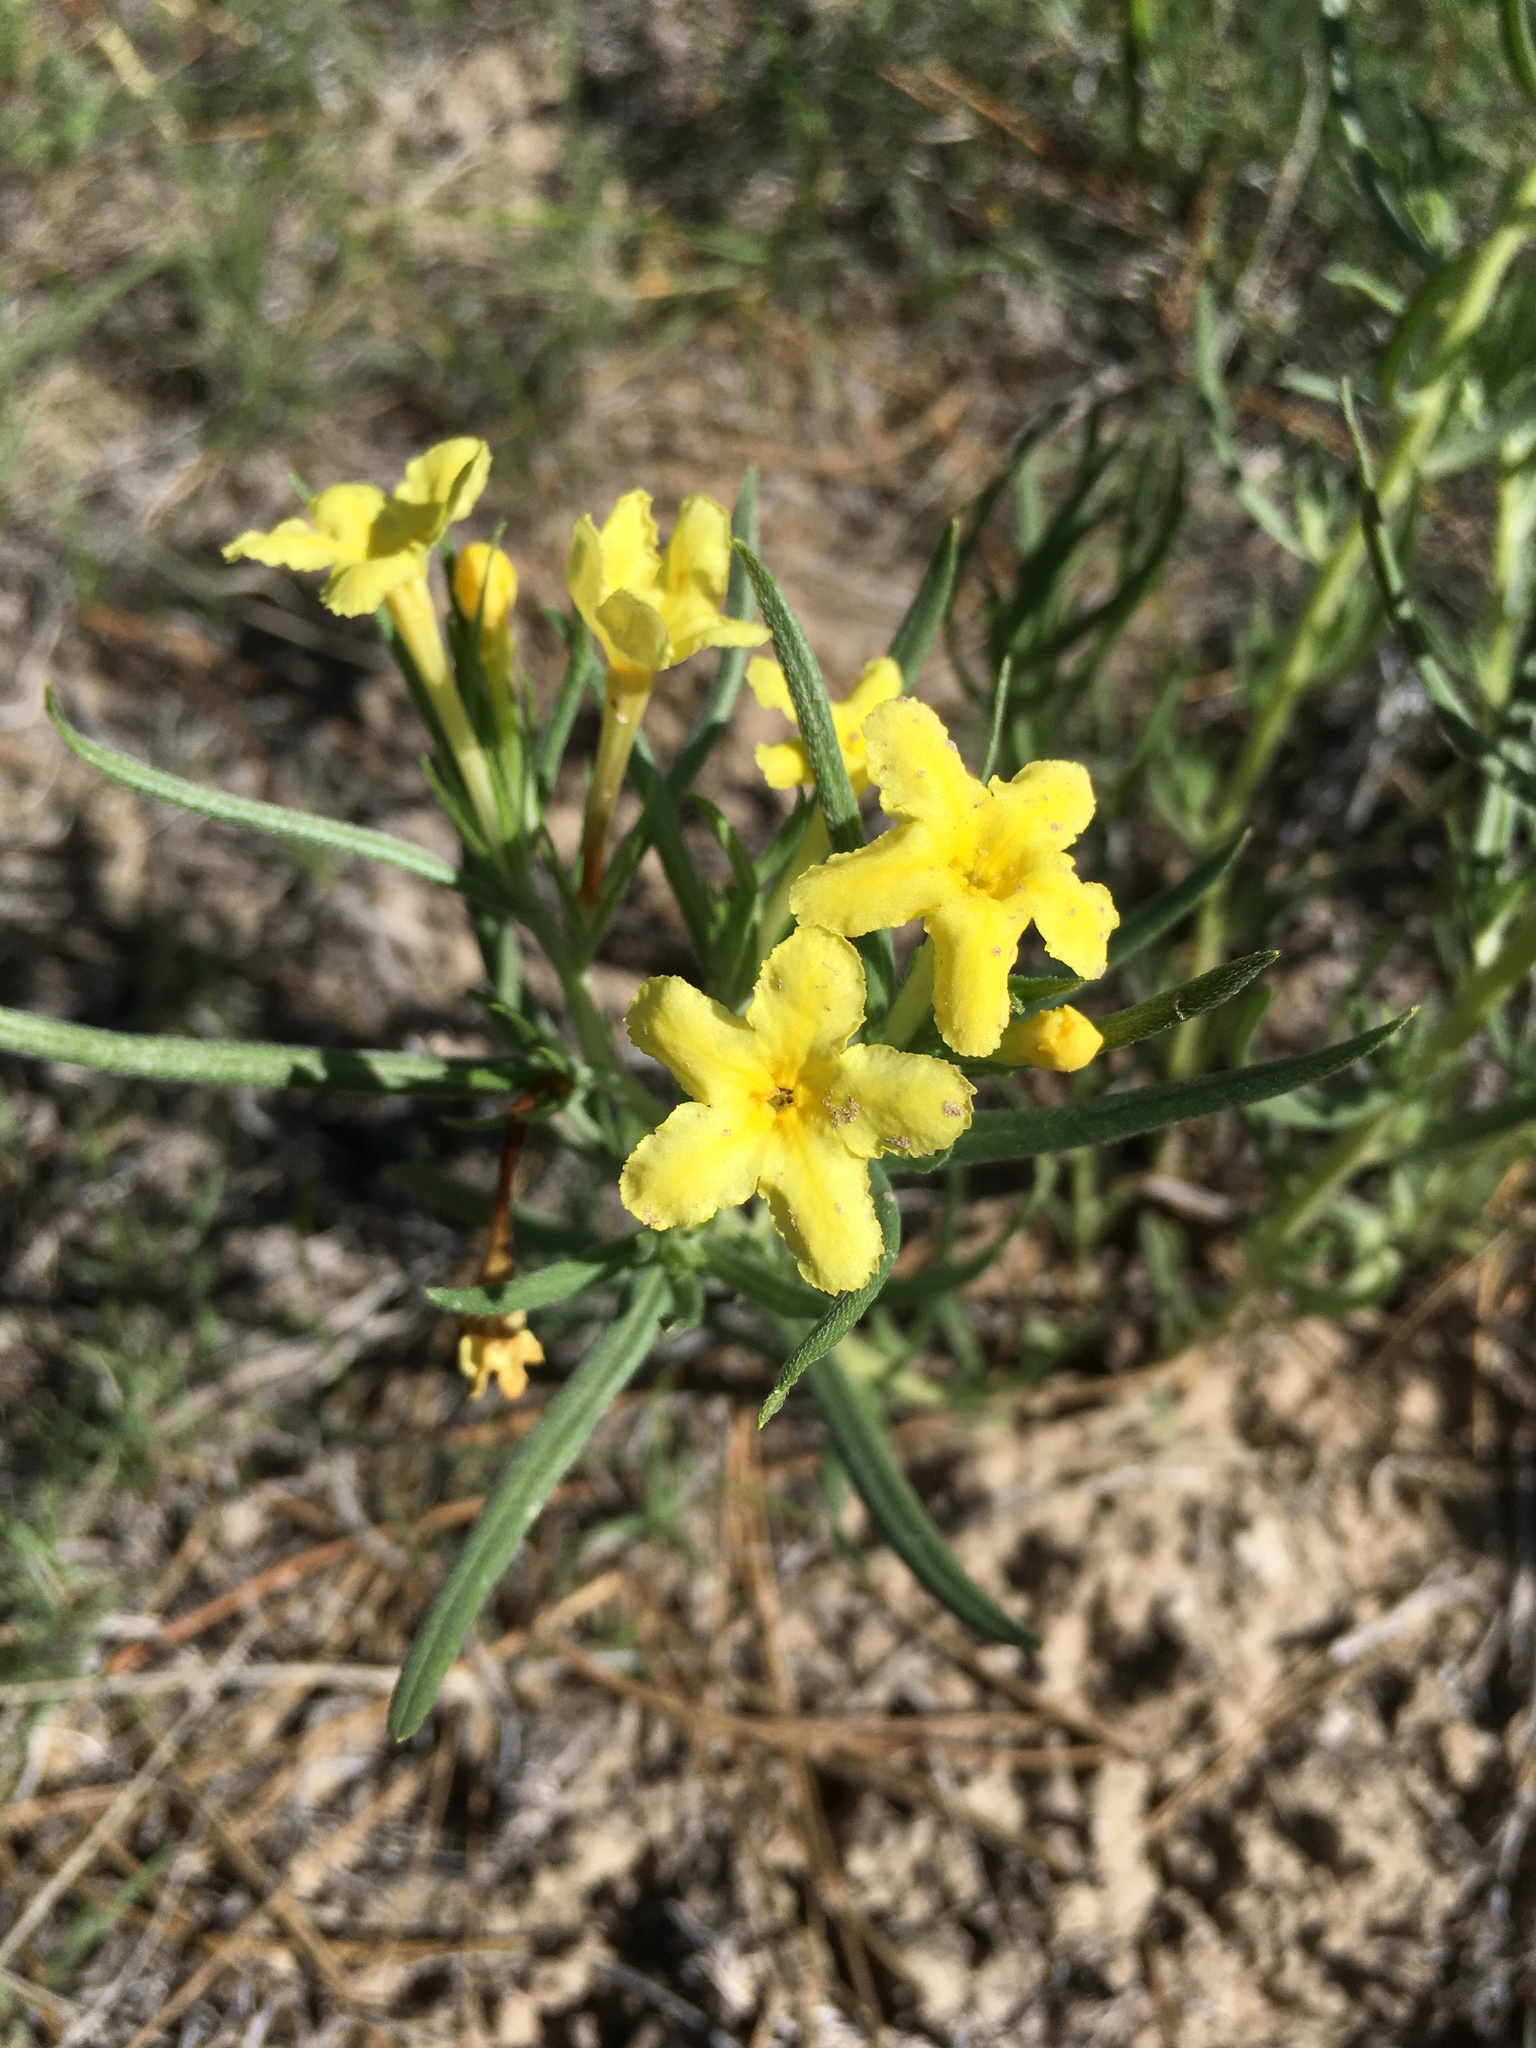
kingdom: Plantae
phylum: Tracheophyta
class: Magnoliopsida
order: Boraginales
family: Boraginaceae
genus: Lithospermum
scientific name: Lithospermum incisum
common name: Fringed gromwell
